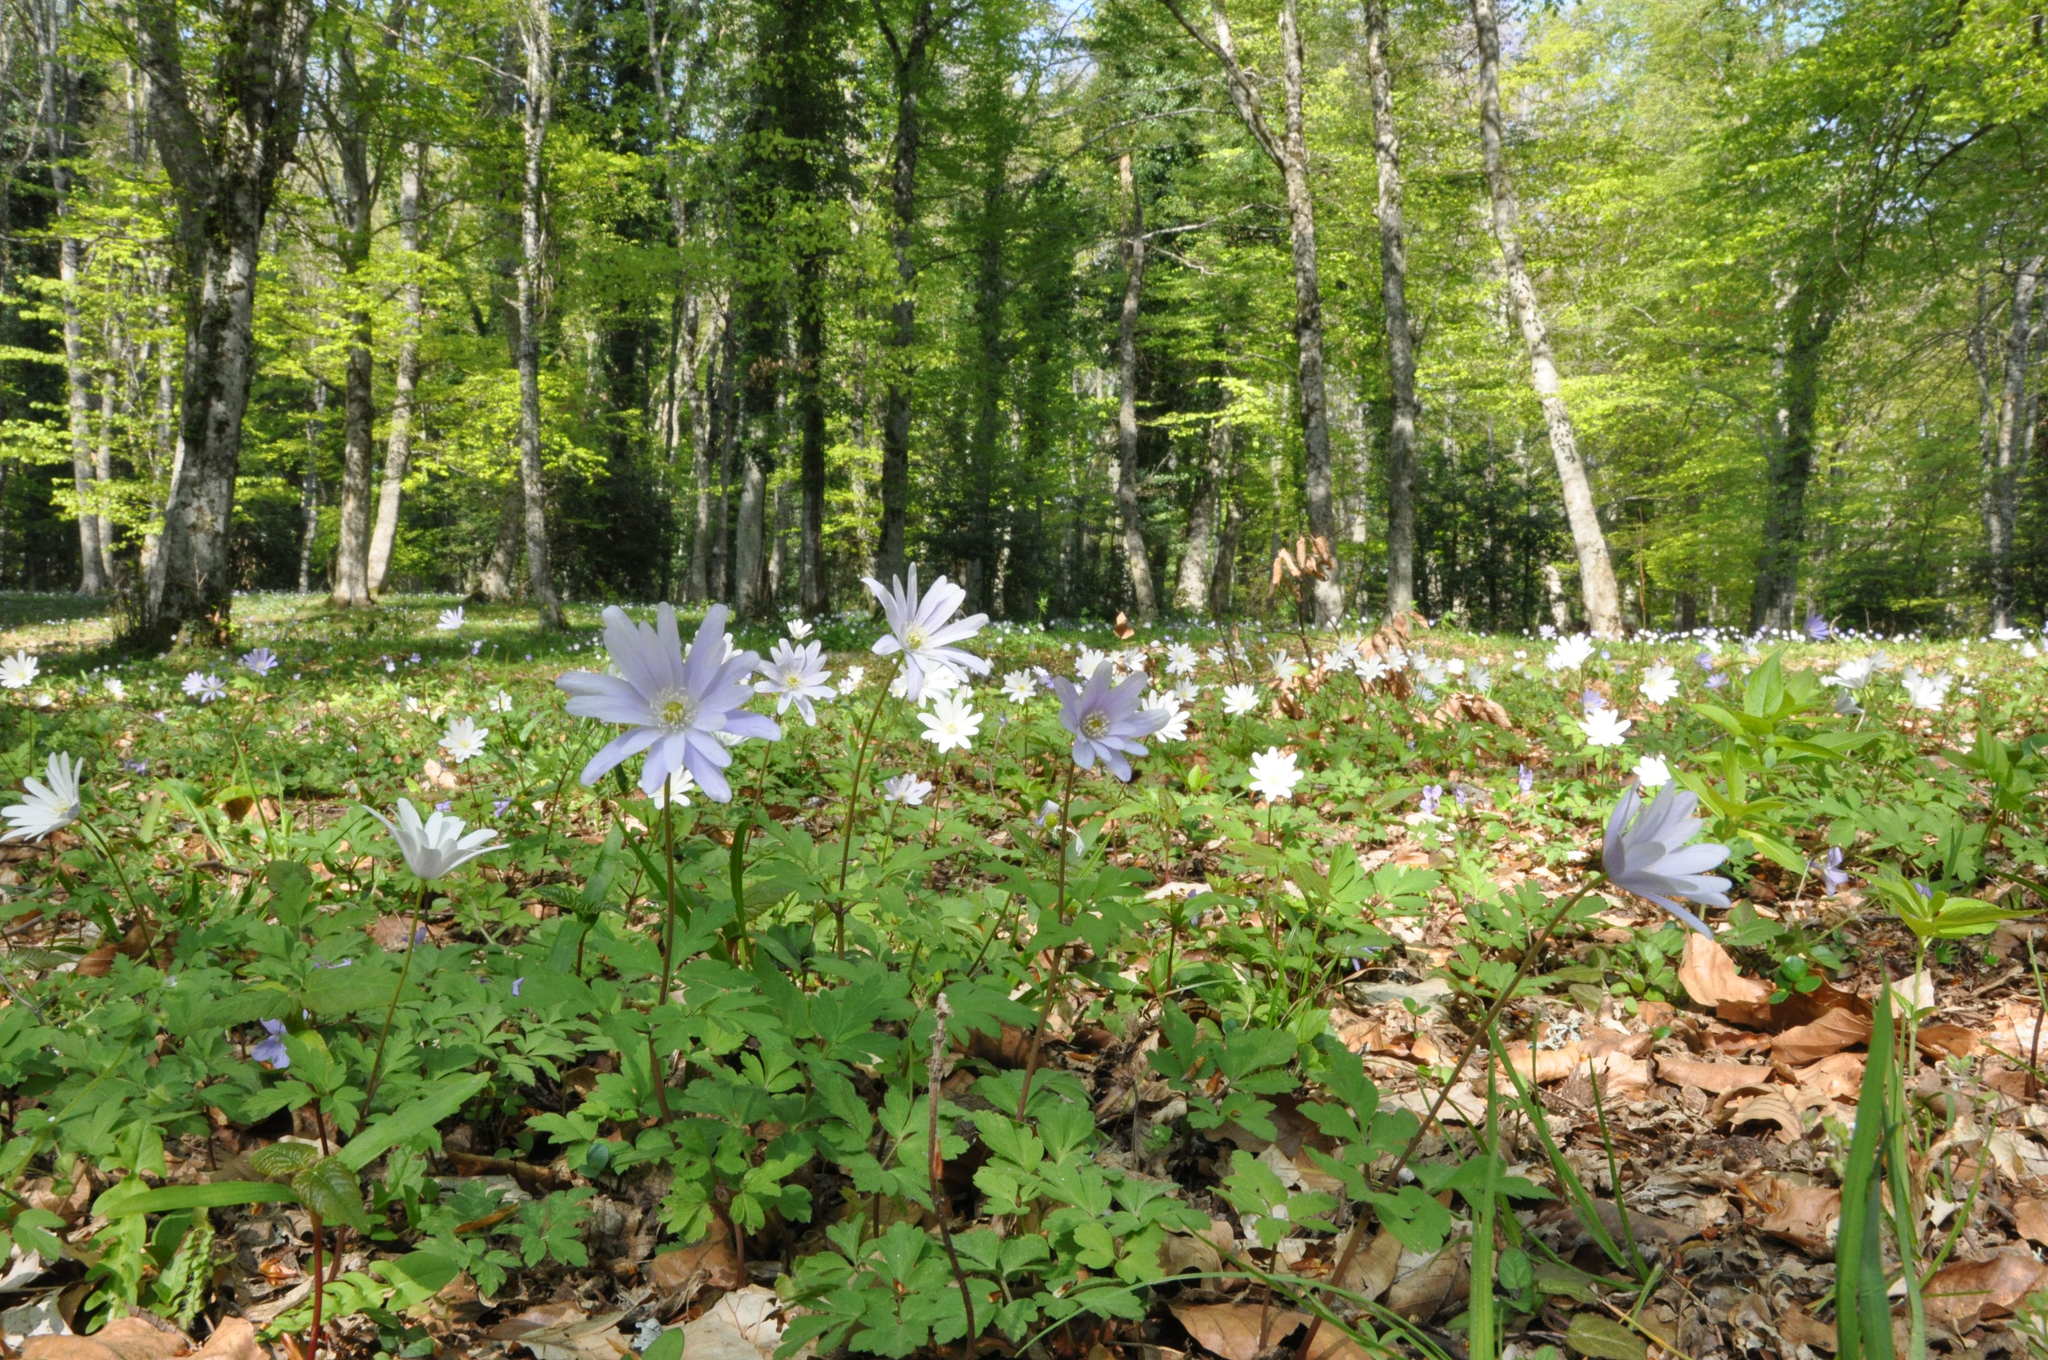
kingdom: Plantae
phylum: Tracheophyta
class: Magnoliopsida
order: Ranunculales
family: Ranunculaceae
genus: Anemone
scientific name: Anemone apennina
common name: Blue anemone
